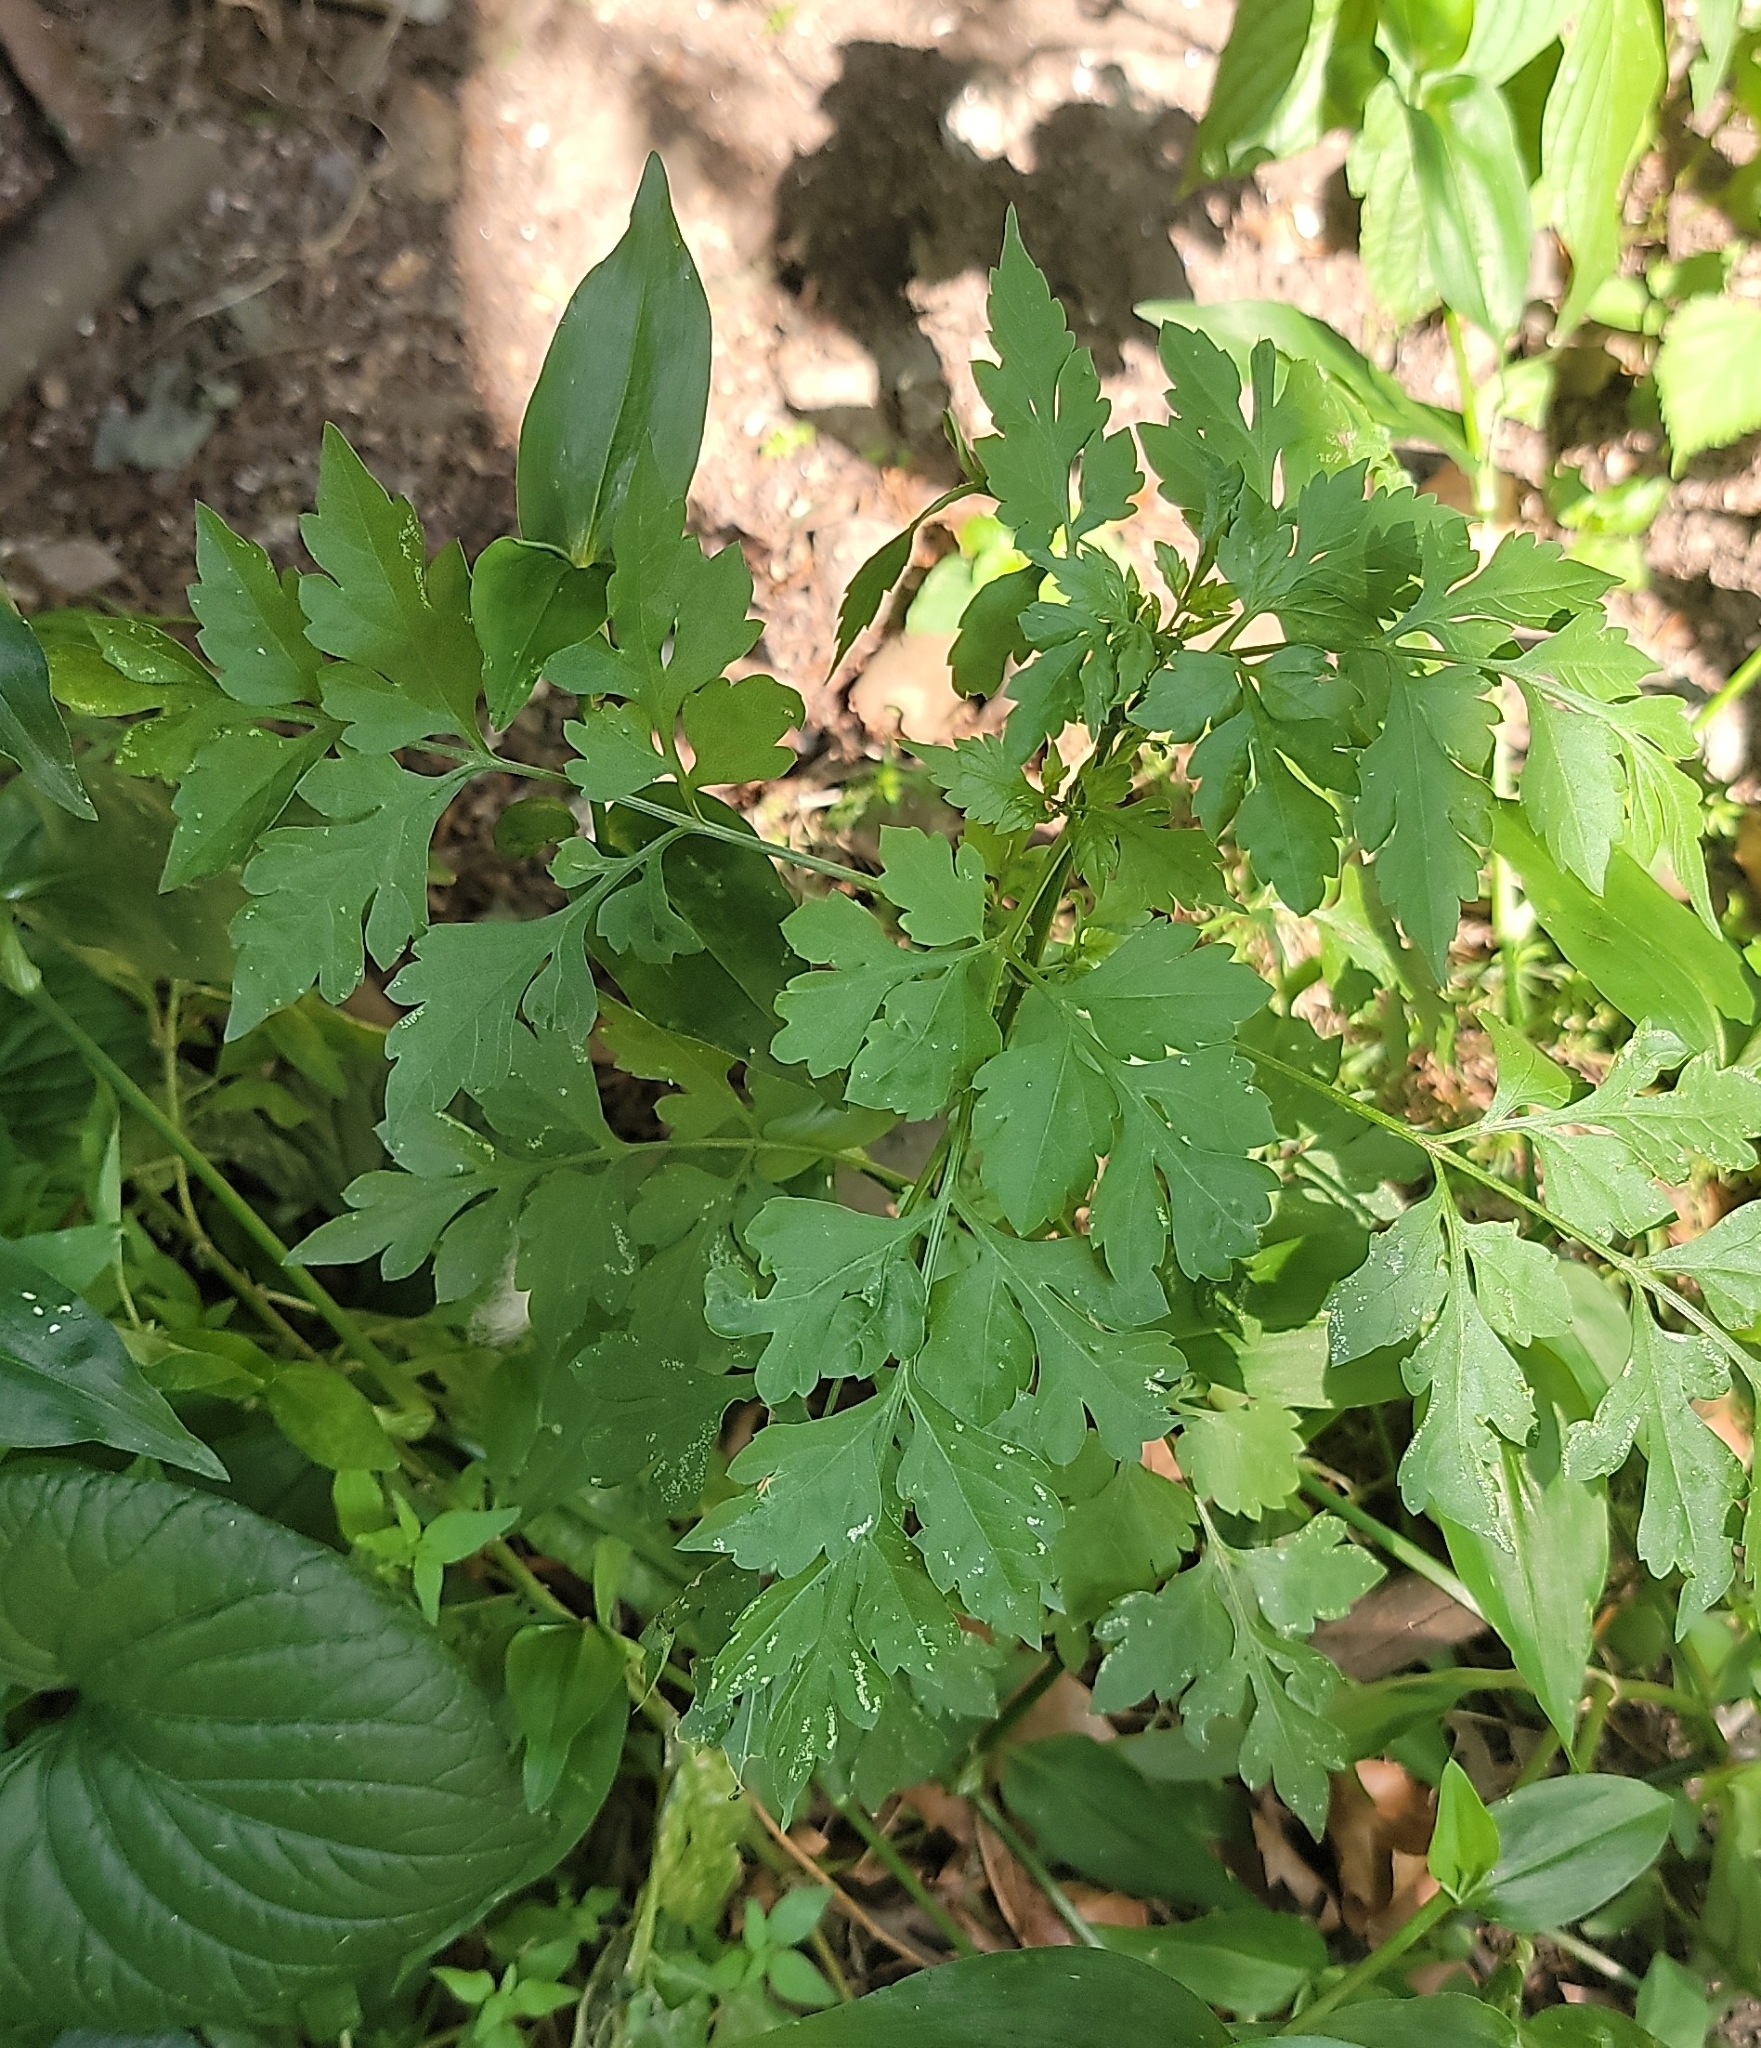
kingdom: Plantae
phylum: Tracheophyta
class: Magnoliopsida
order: Asterales
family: Asteraceae
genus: Bidens
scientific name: Bidens bipinnata
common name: Spanish-needles
